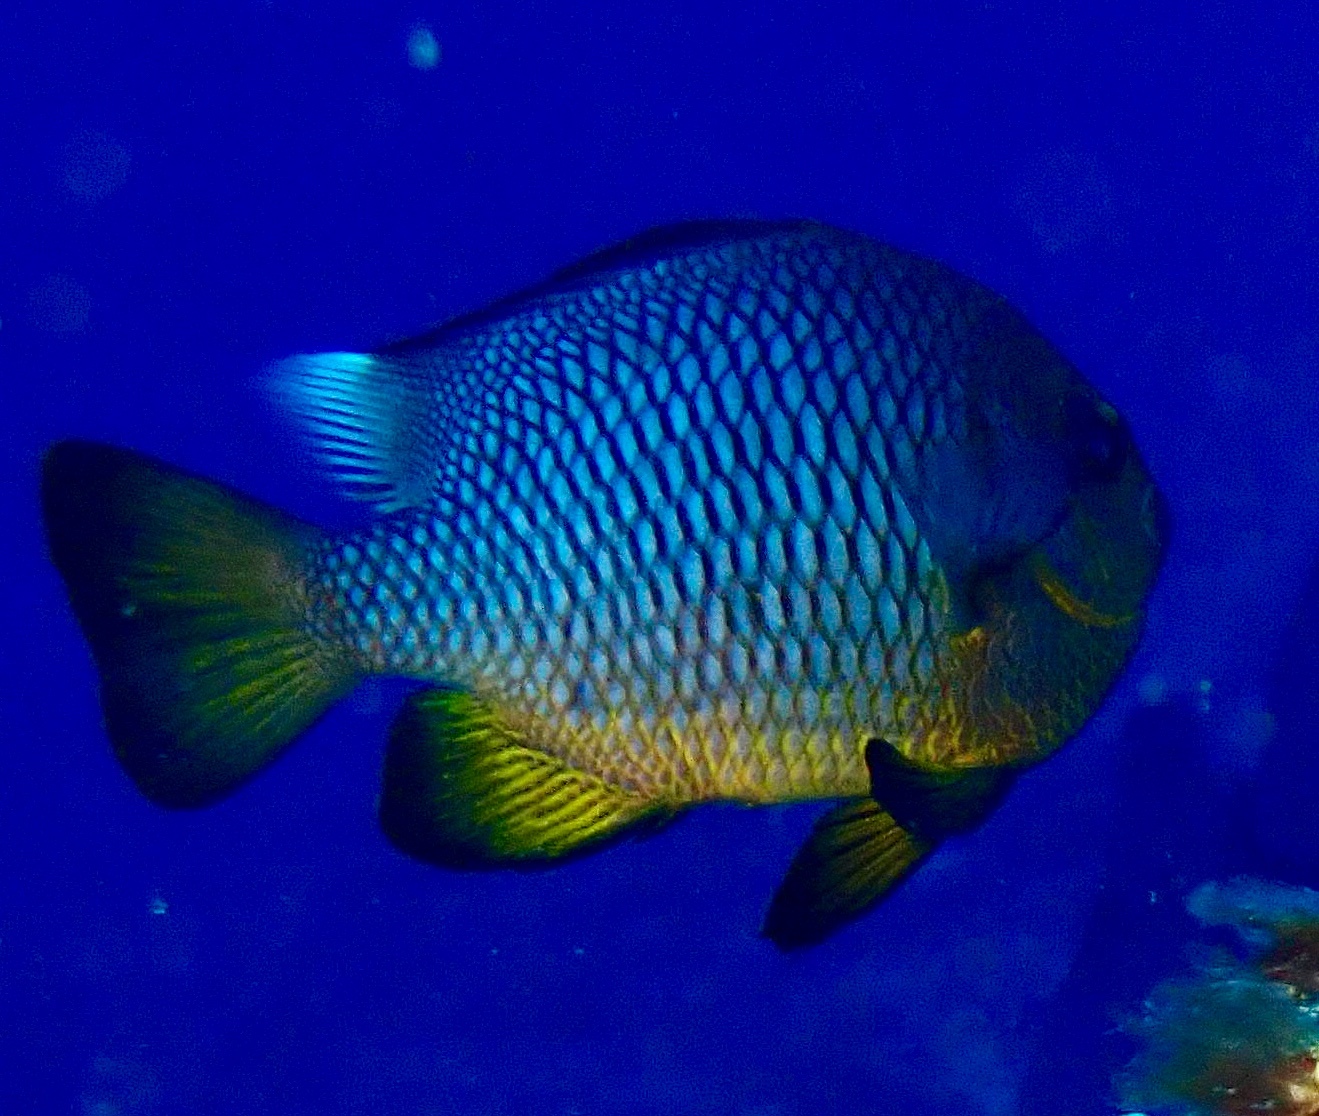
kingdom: Animalia
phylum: Chordata
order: Perciformes
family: Pomacentridae
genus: Dascyllus
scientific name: Dascyllus trimaculatus
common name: Threespot dascyllus
